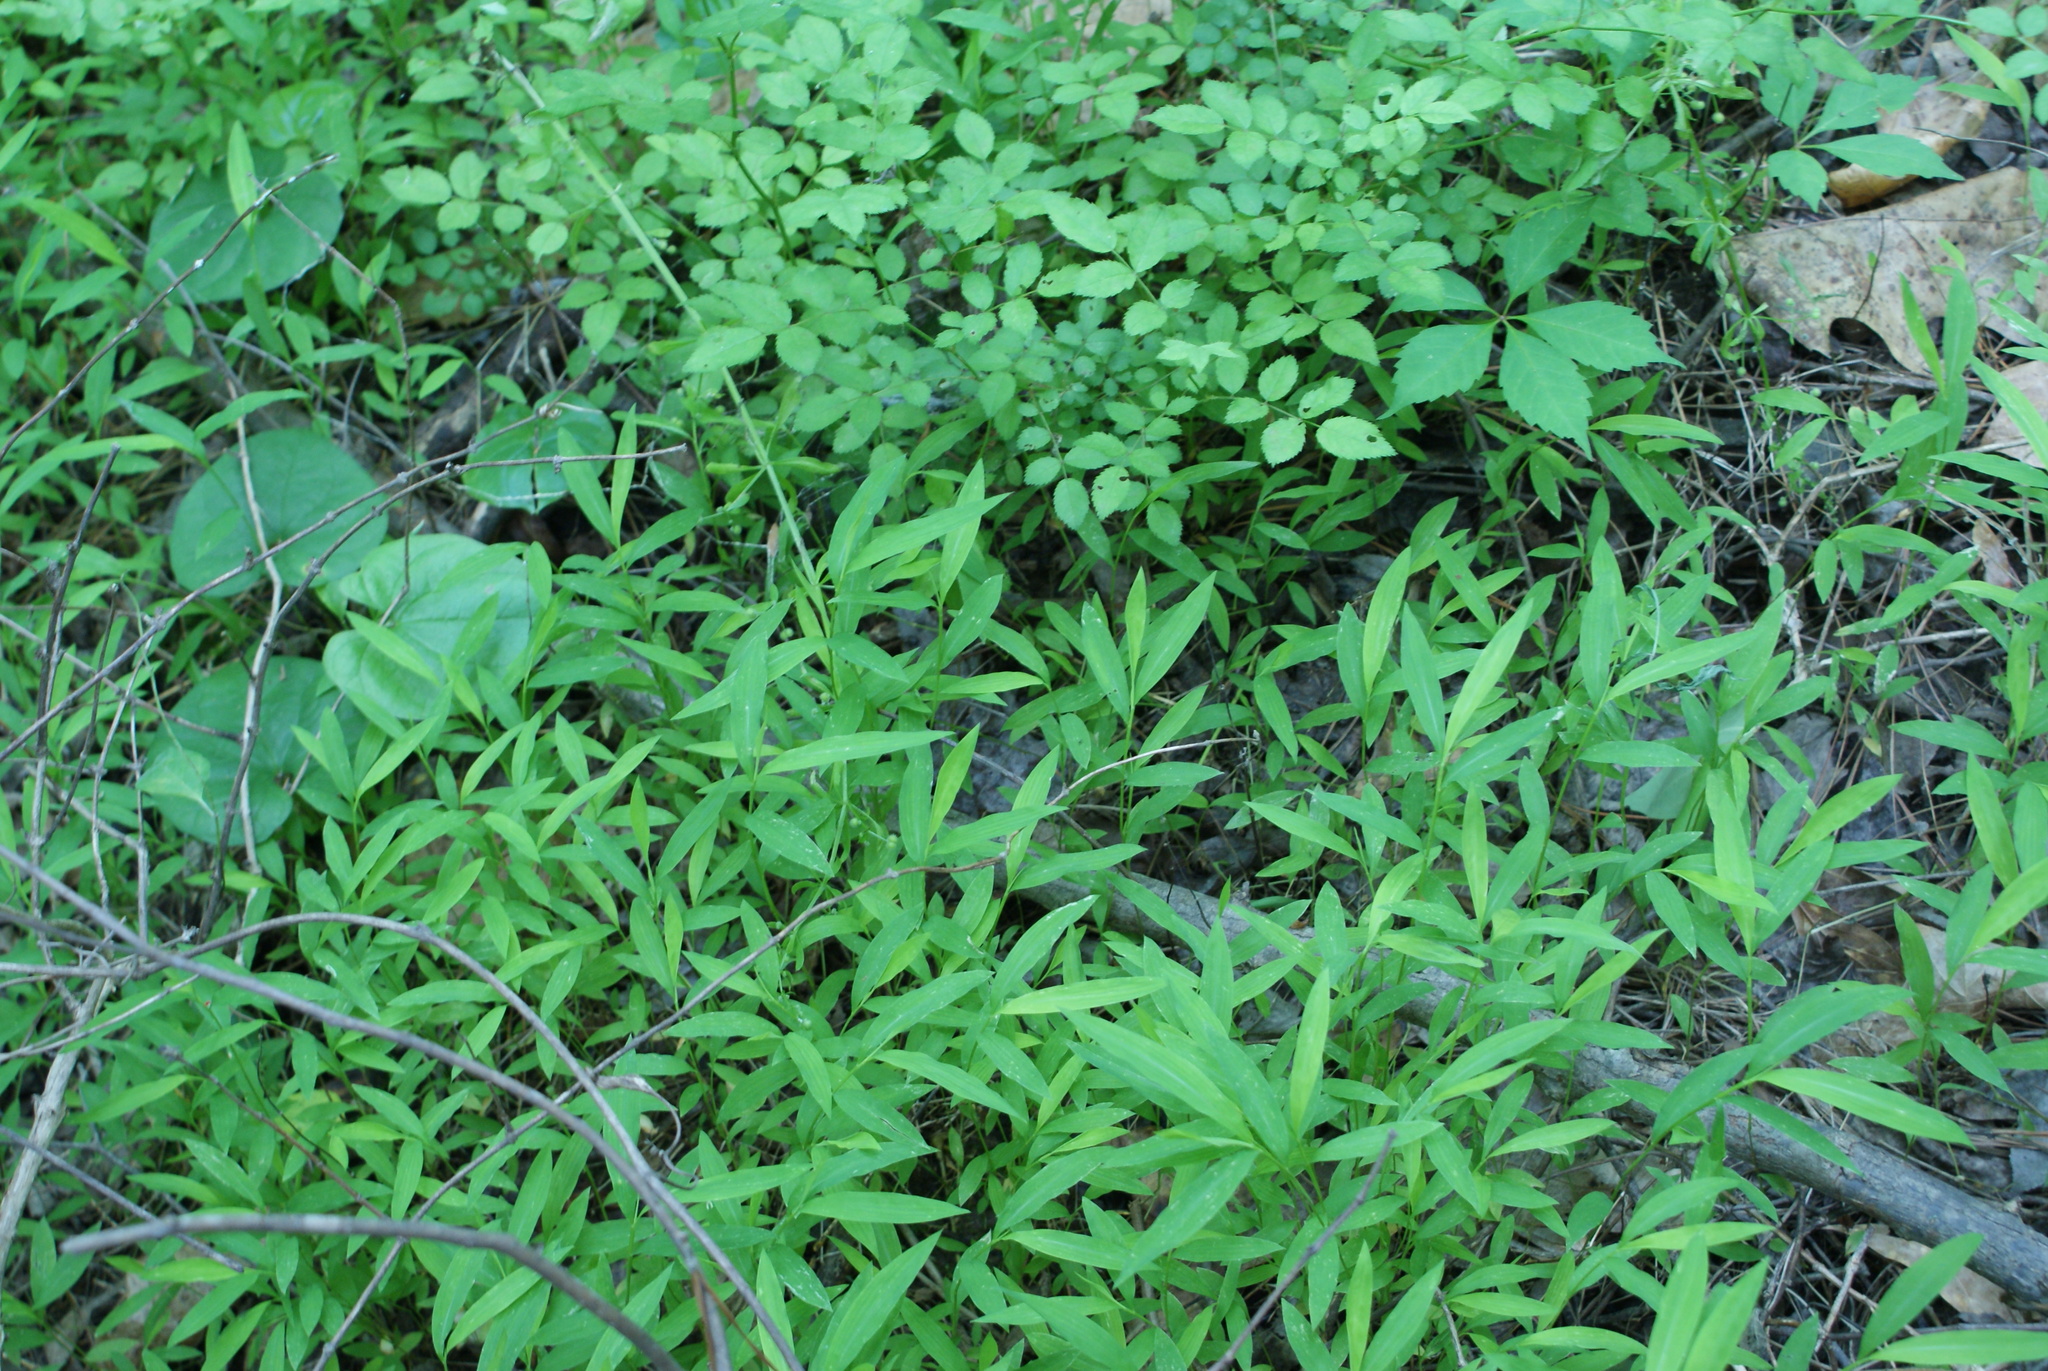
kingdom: Plantae
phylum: Tracheophyta
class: Liliopsida
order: Poales
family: Poaceae
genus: Microstegium
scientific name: Microstegium vimineum
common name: Japanese stiltgrass
